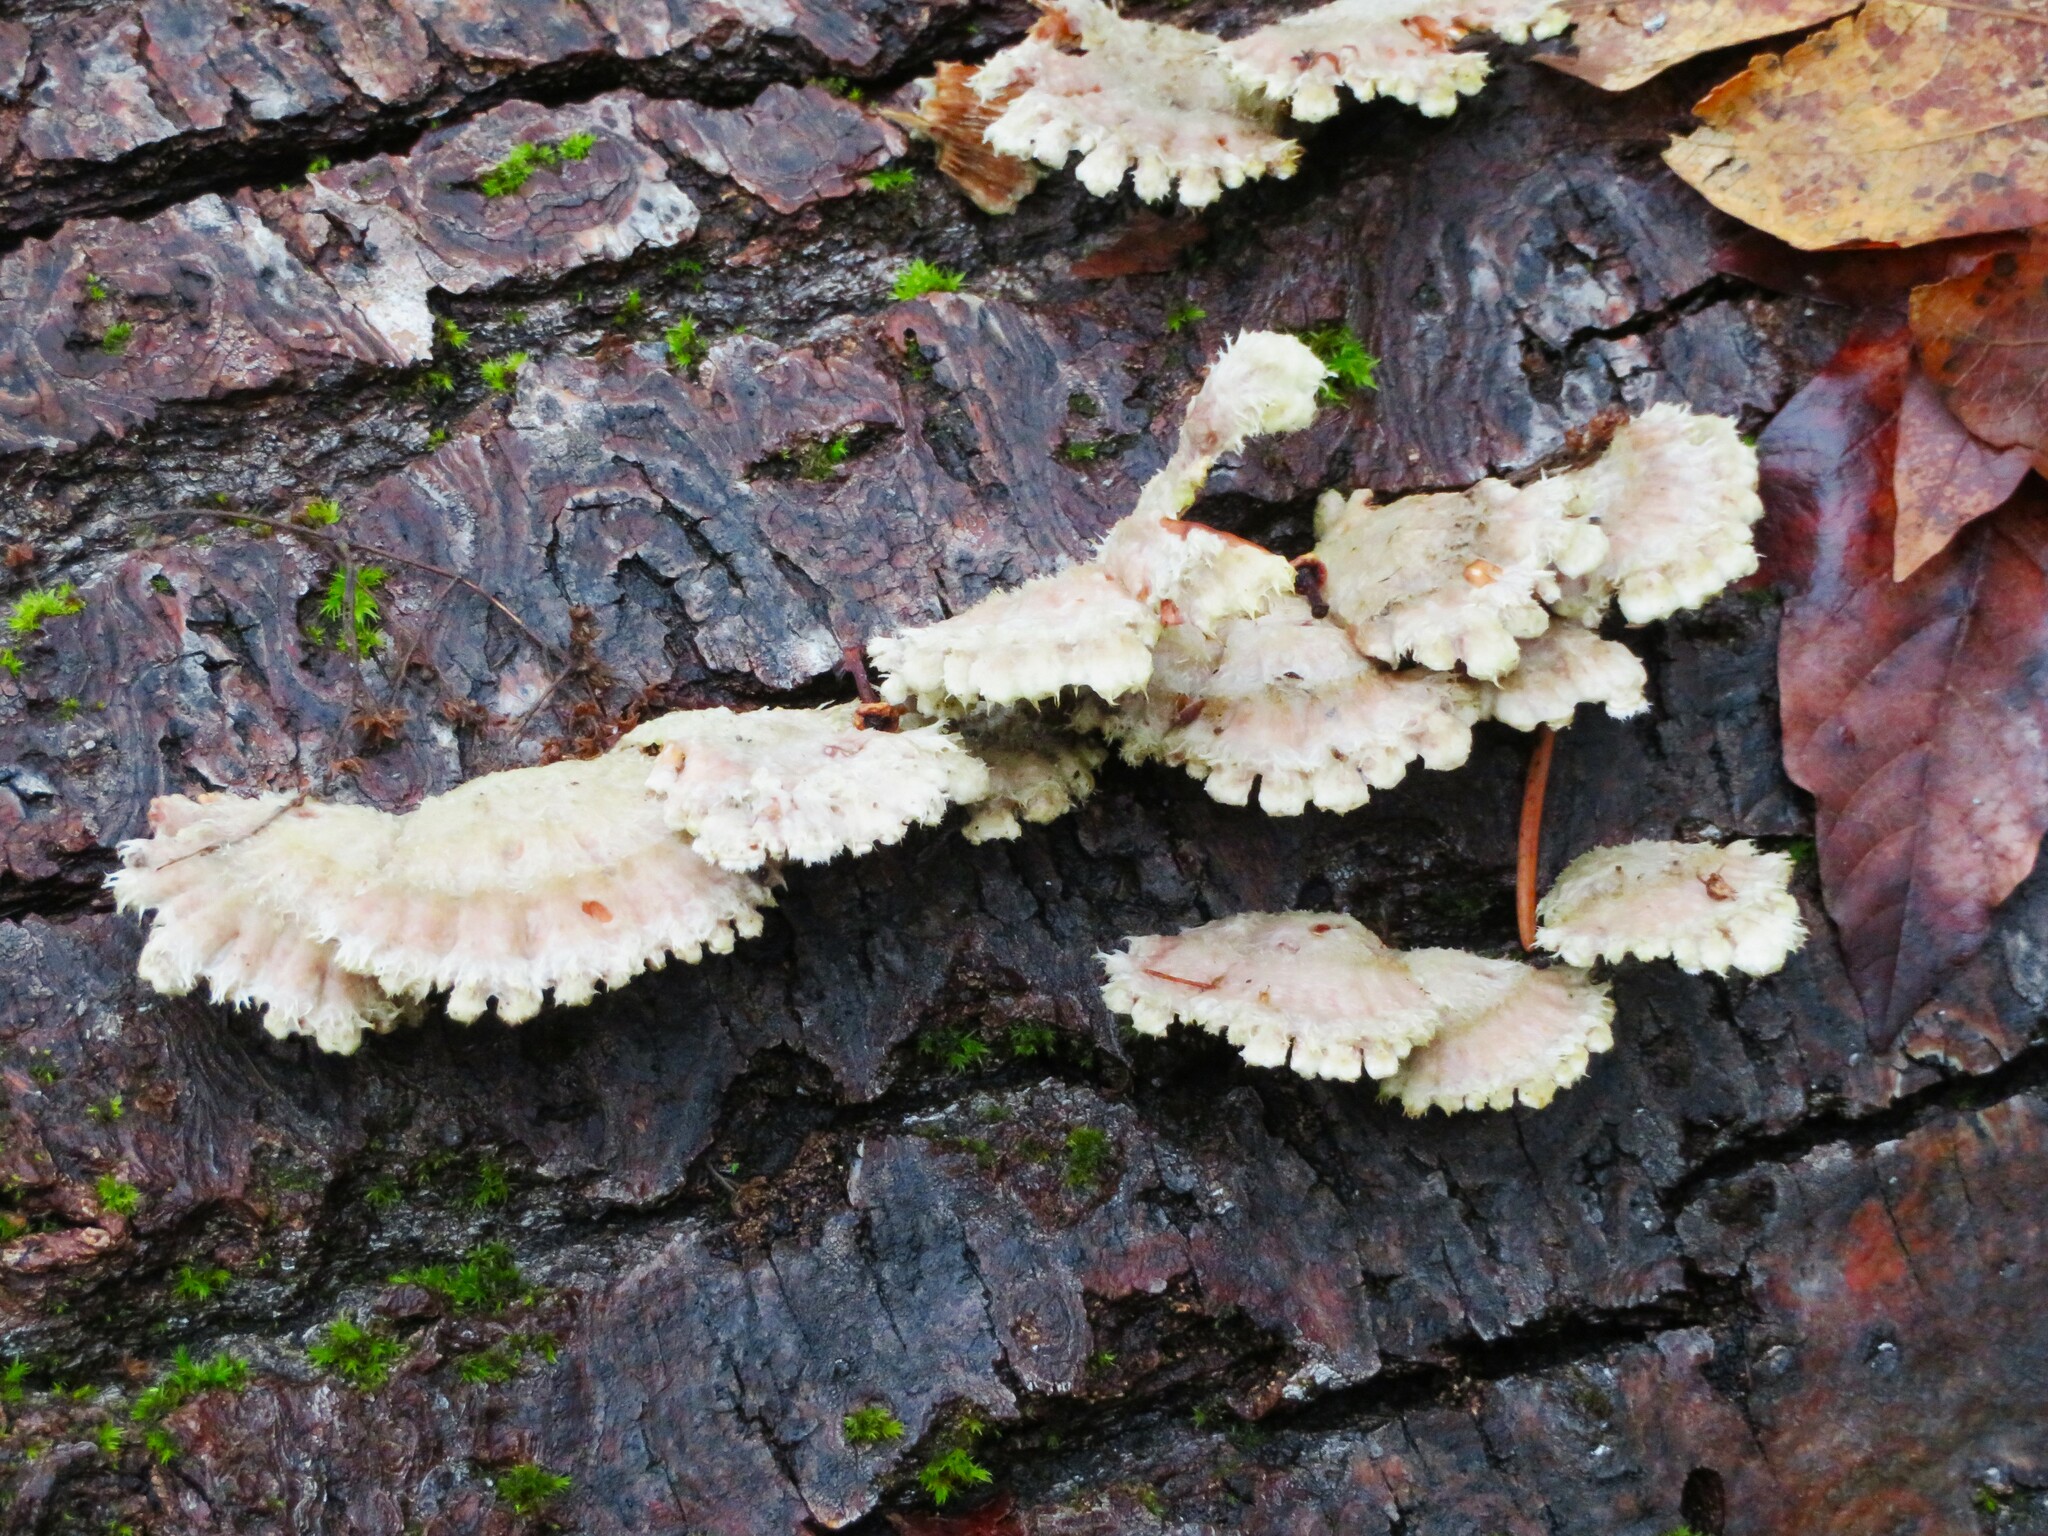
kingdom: Fungi
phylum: Basidiomycota
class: Agaricomycetes
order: Agaricales
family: Schizophyllaceae
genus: Schizophyllum
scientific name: Schizophyllum commune
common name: Common porecrust
